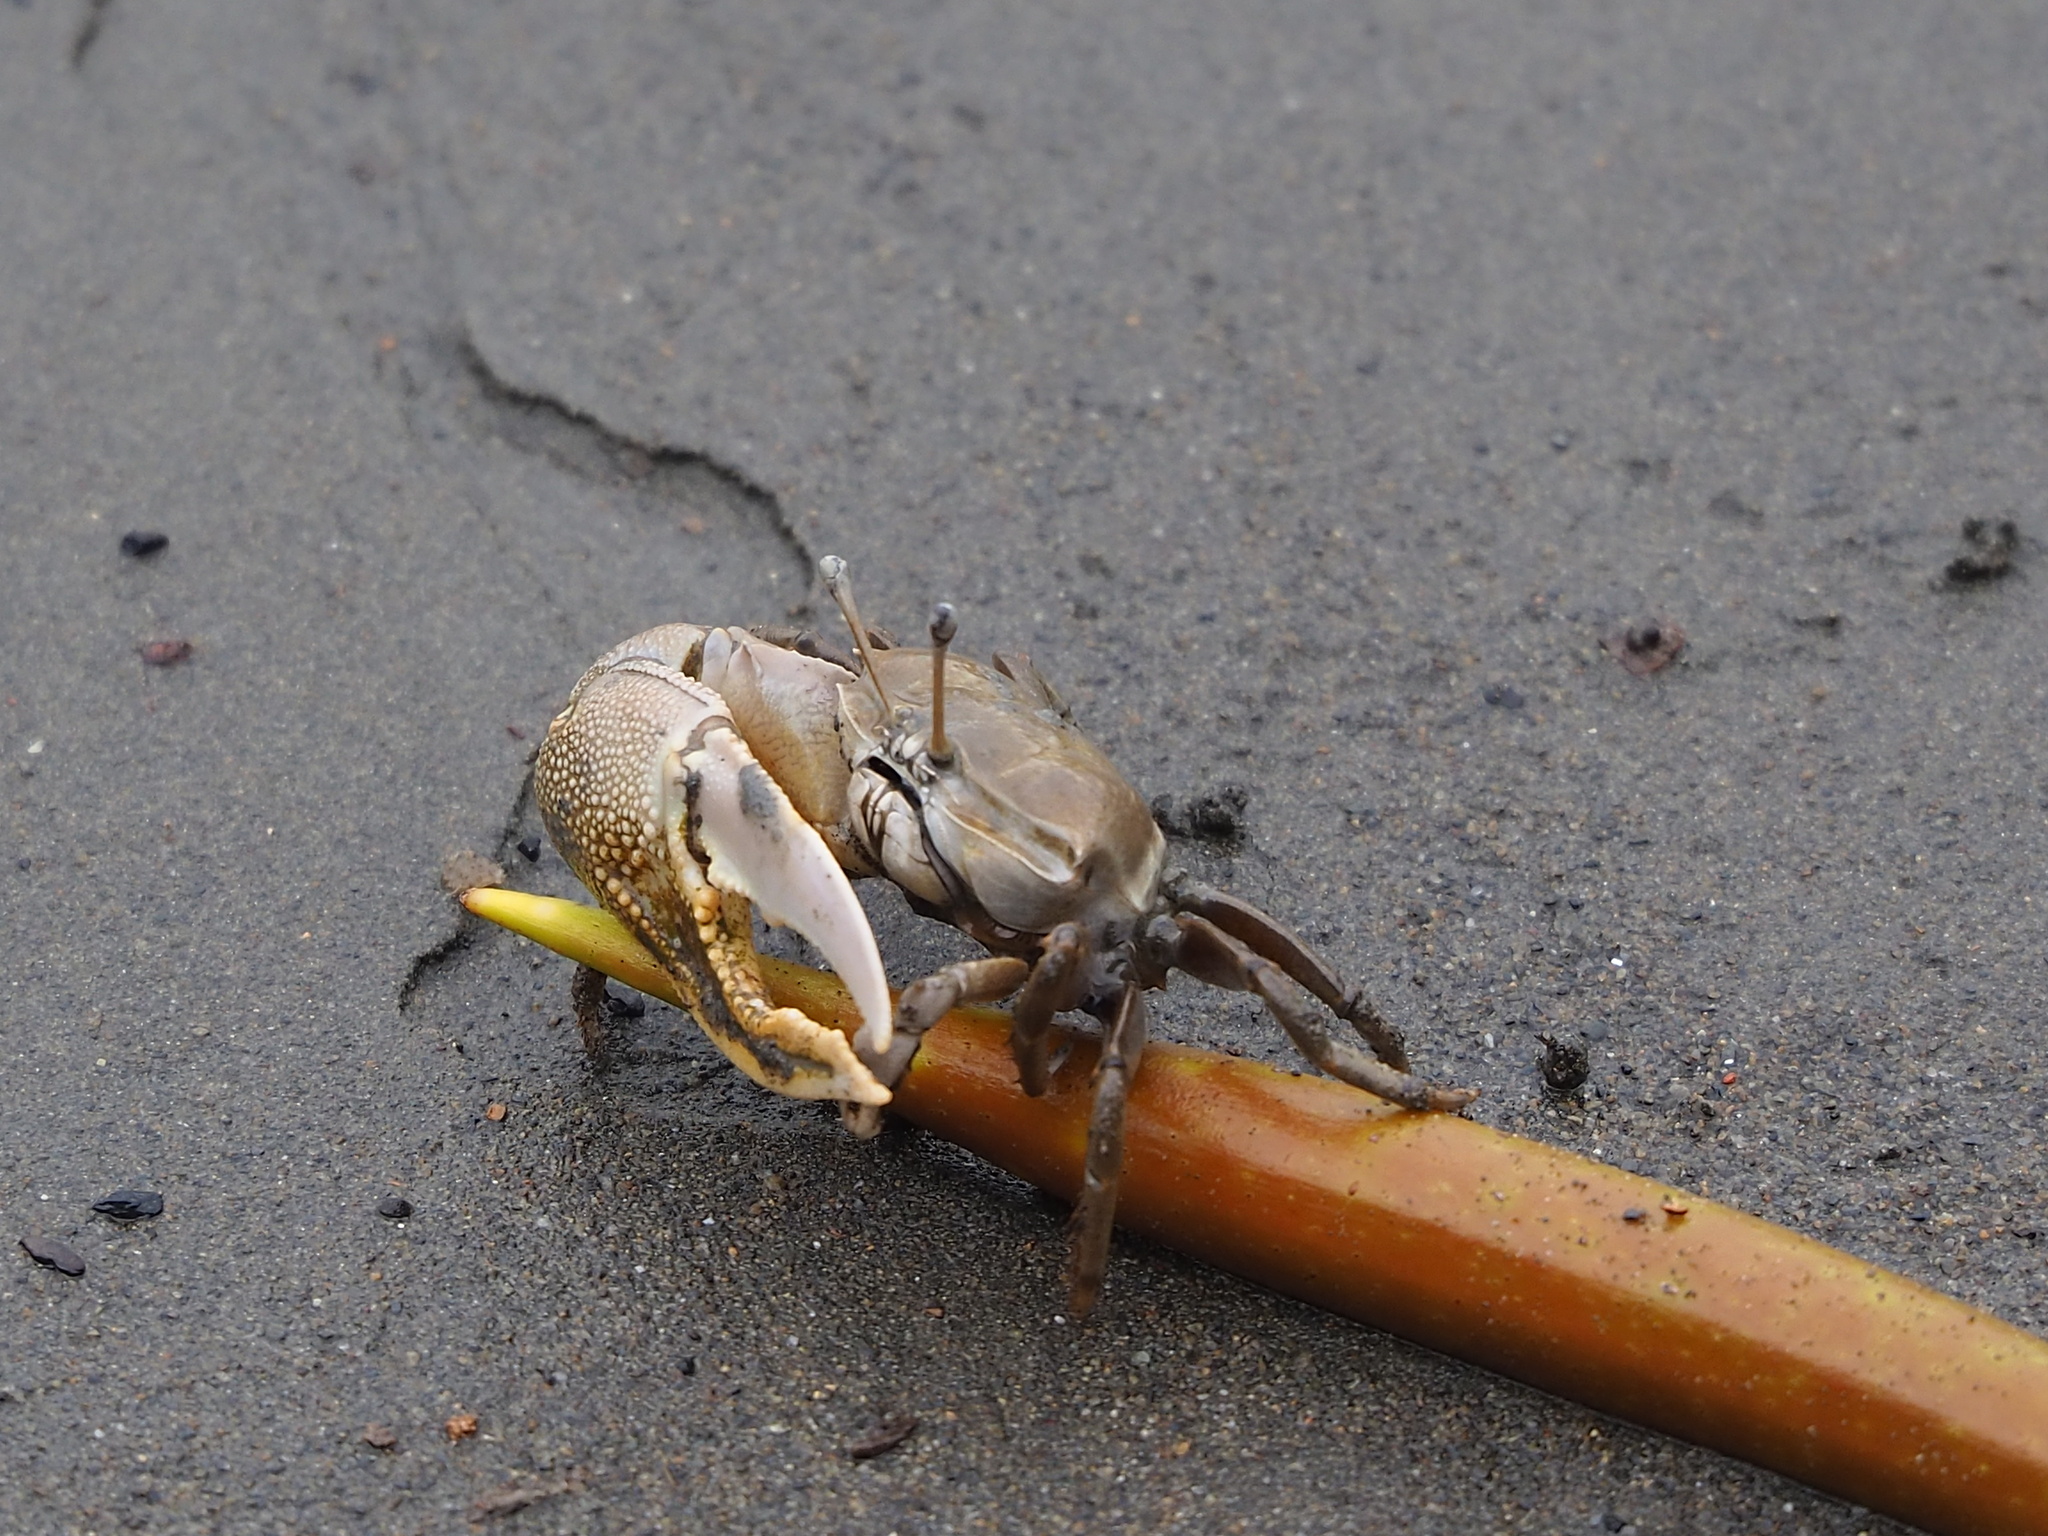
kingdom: Animalia
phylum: Arthropoda
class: Malacostraca
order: Decapoda
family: Ocypodidae
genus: Gelasimus
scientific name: Gelasimus borealis
